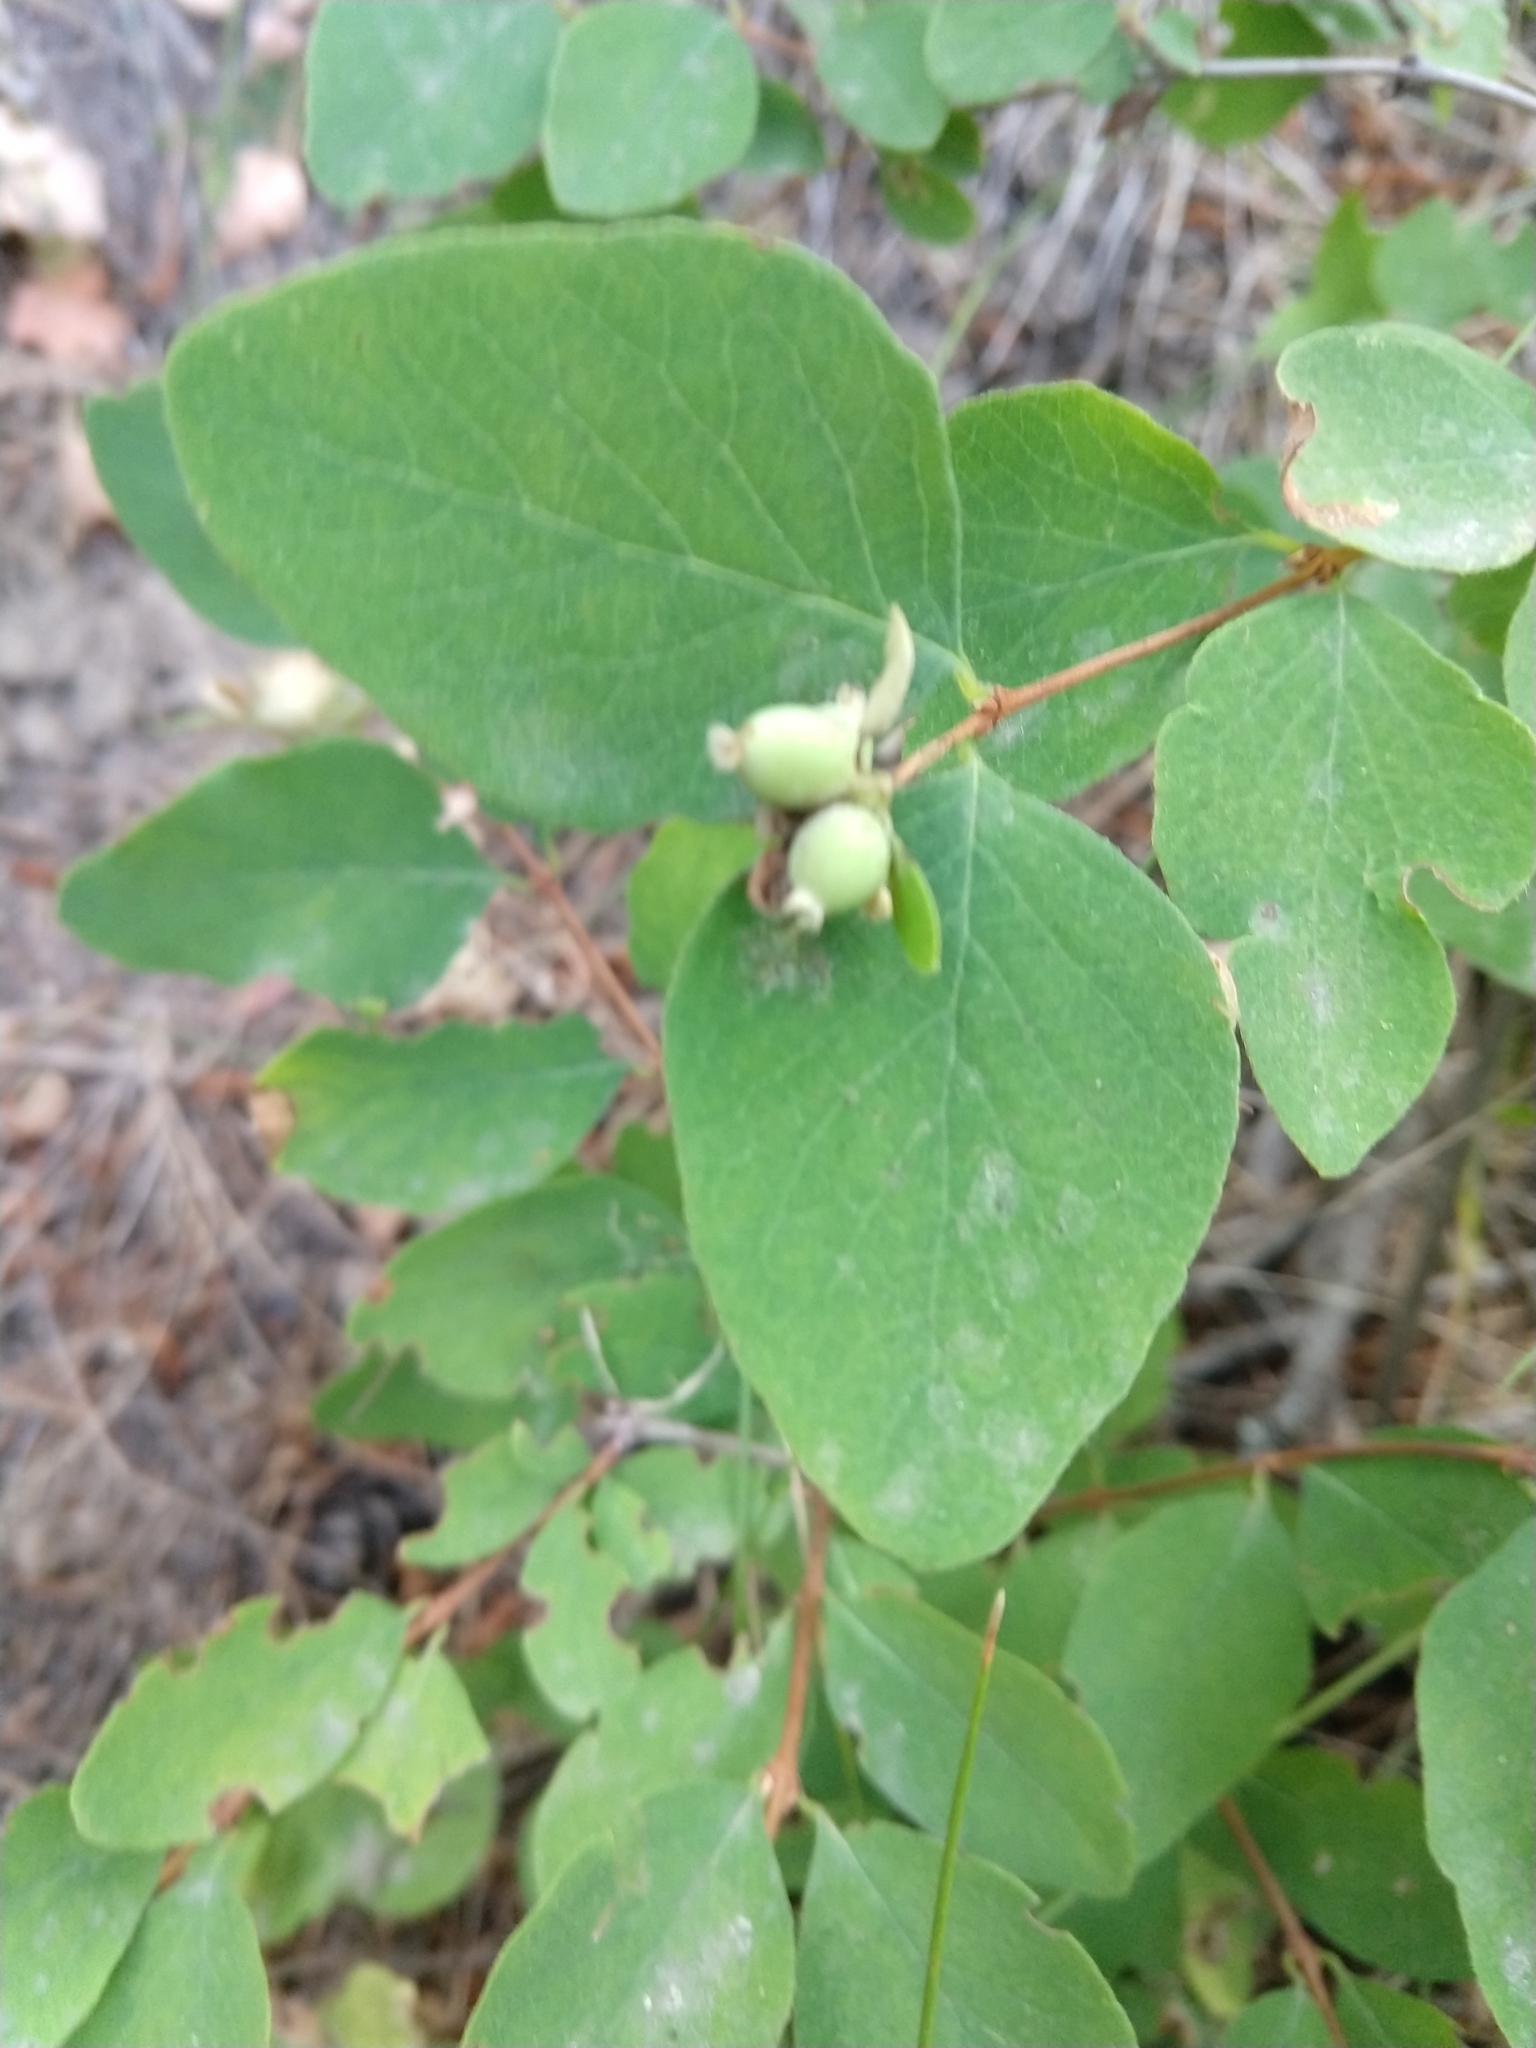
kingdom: Plantae
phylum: Tracheophyta
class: Magnoliopsida
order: Dipsacales
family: Caprifoliaceae
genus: Symphoricarpos
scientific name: Symphoricarpos albus
